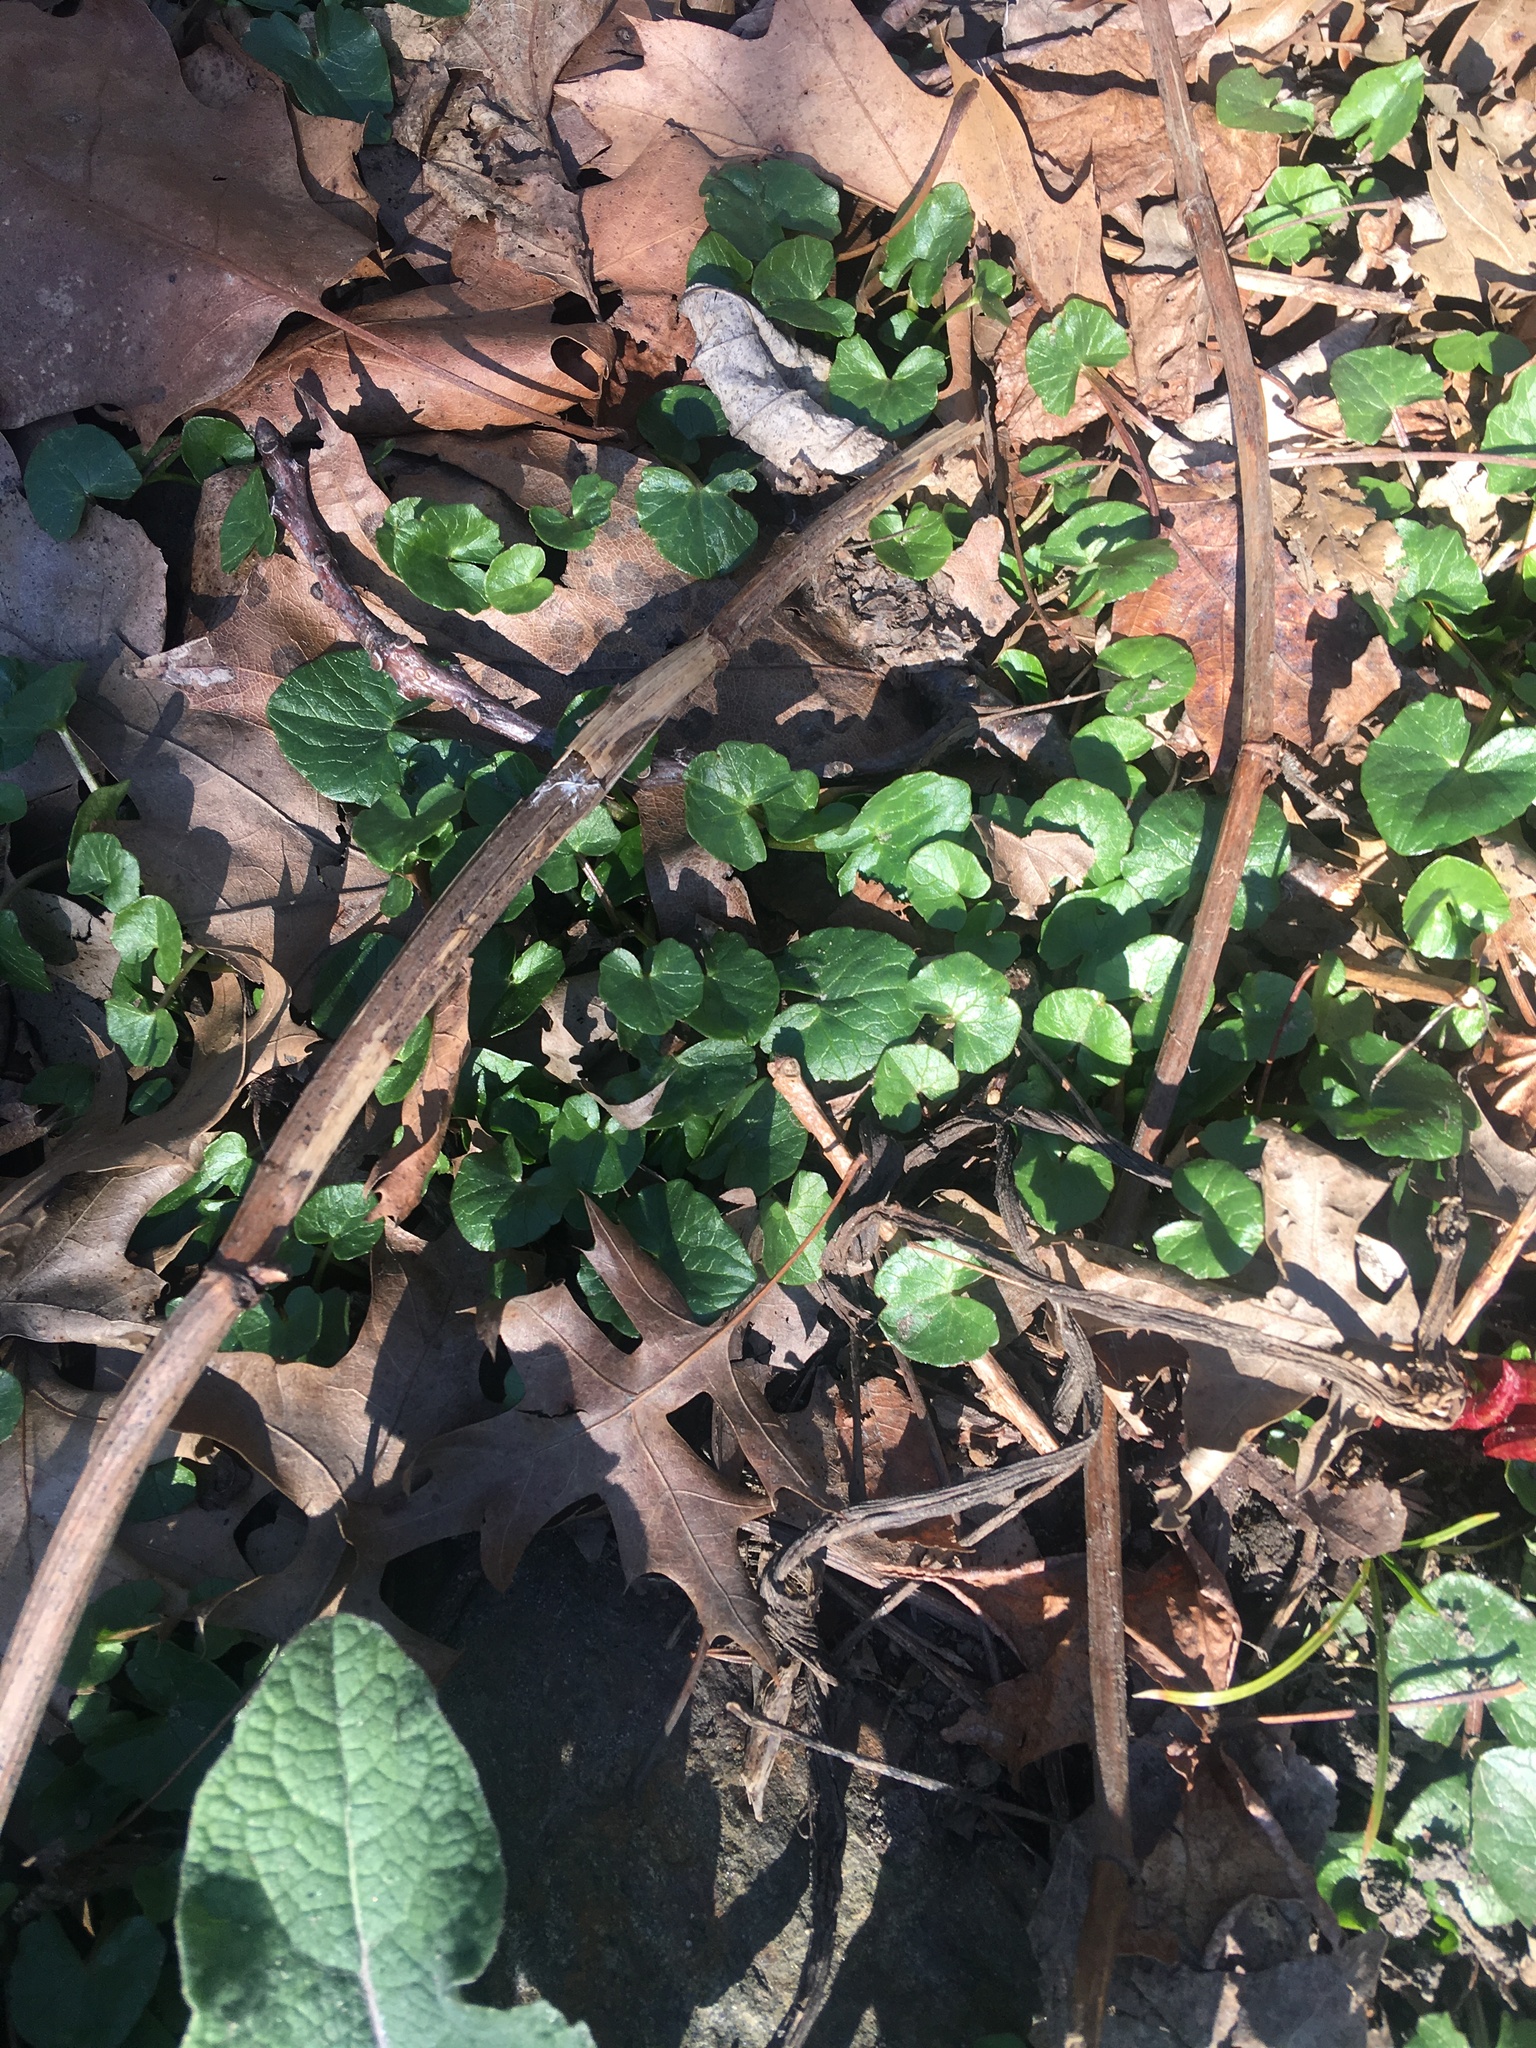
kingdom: Plantae
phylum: Tracheophyta
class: Magnoliopsida
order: Ranunculales
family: Ranunculaceae
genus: Ficaria
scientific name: Ficaria verna
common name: Lesser celandine
